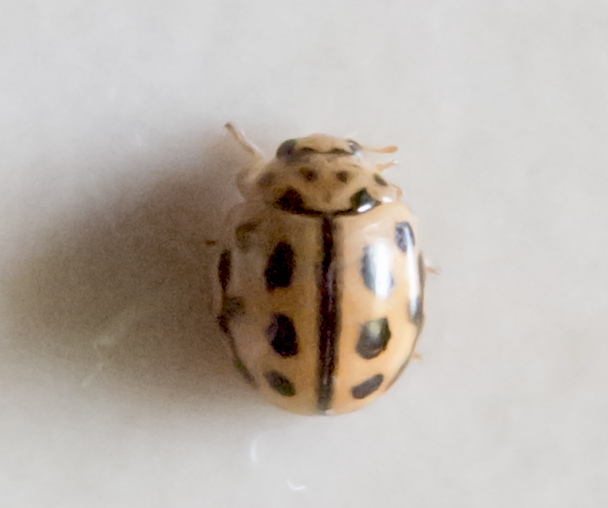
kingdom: Animalia
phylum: Arthropoda
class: Insecta
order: Coleoptera
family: Coccinellidae
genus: Tytthaspis
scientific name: Tytthaspis sedecimpunctata
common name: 16-spot ladybird
